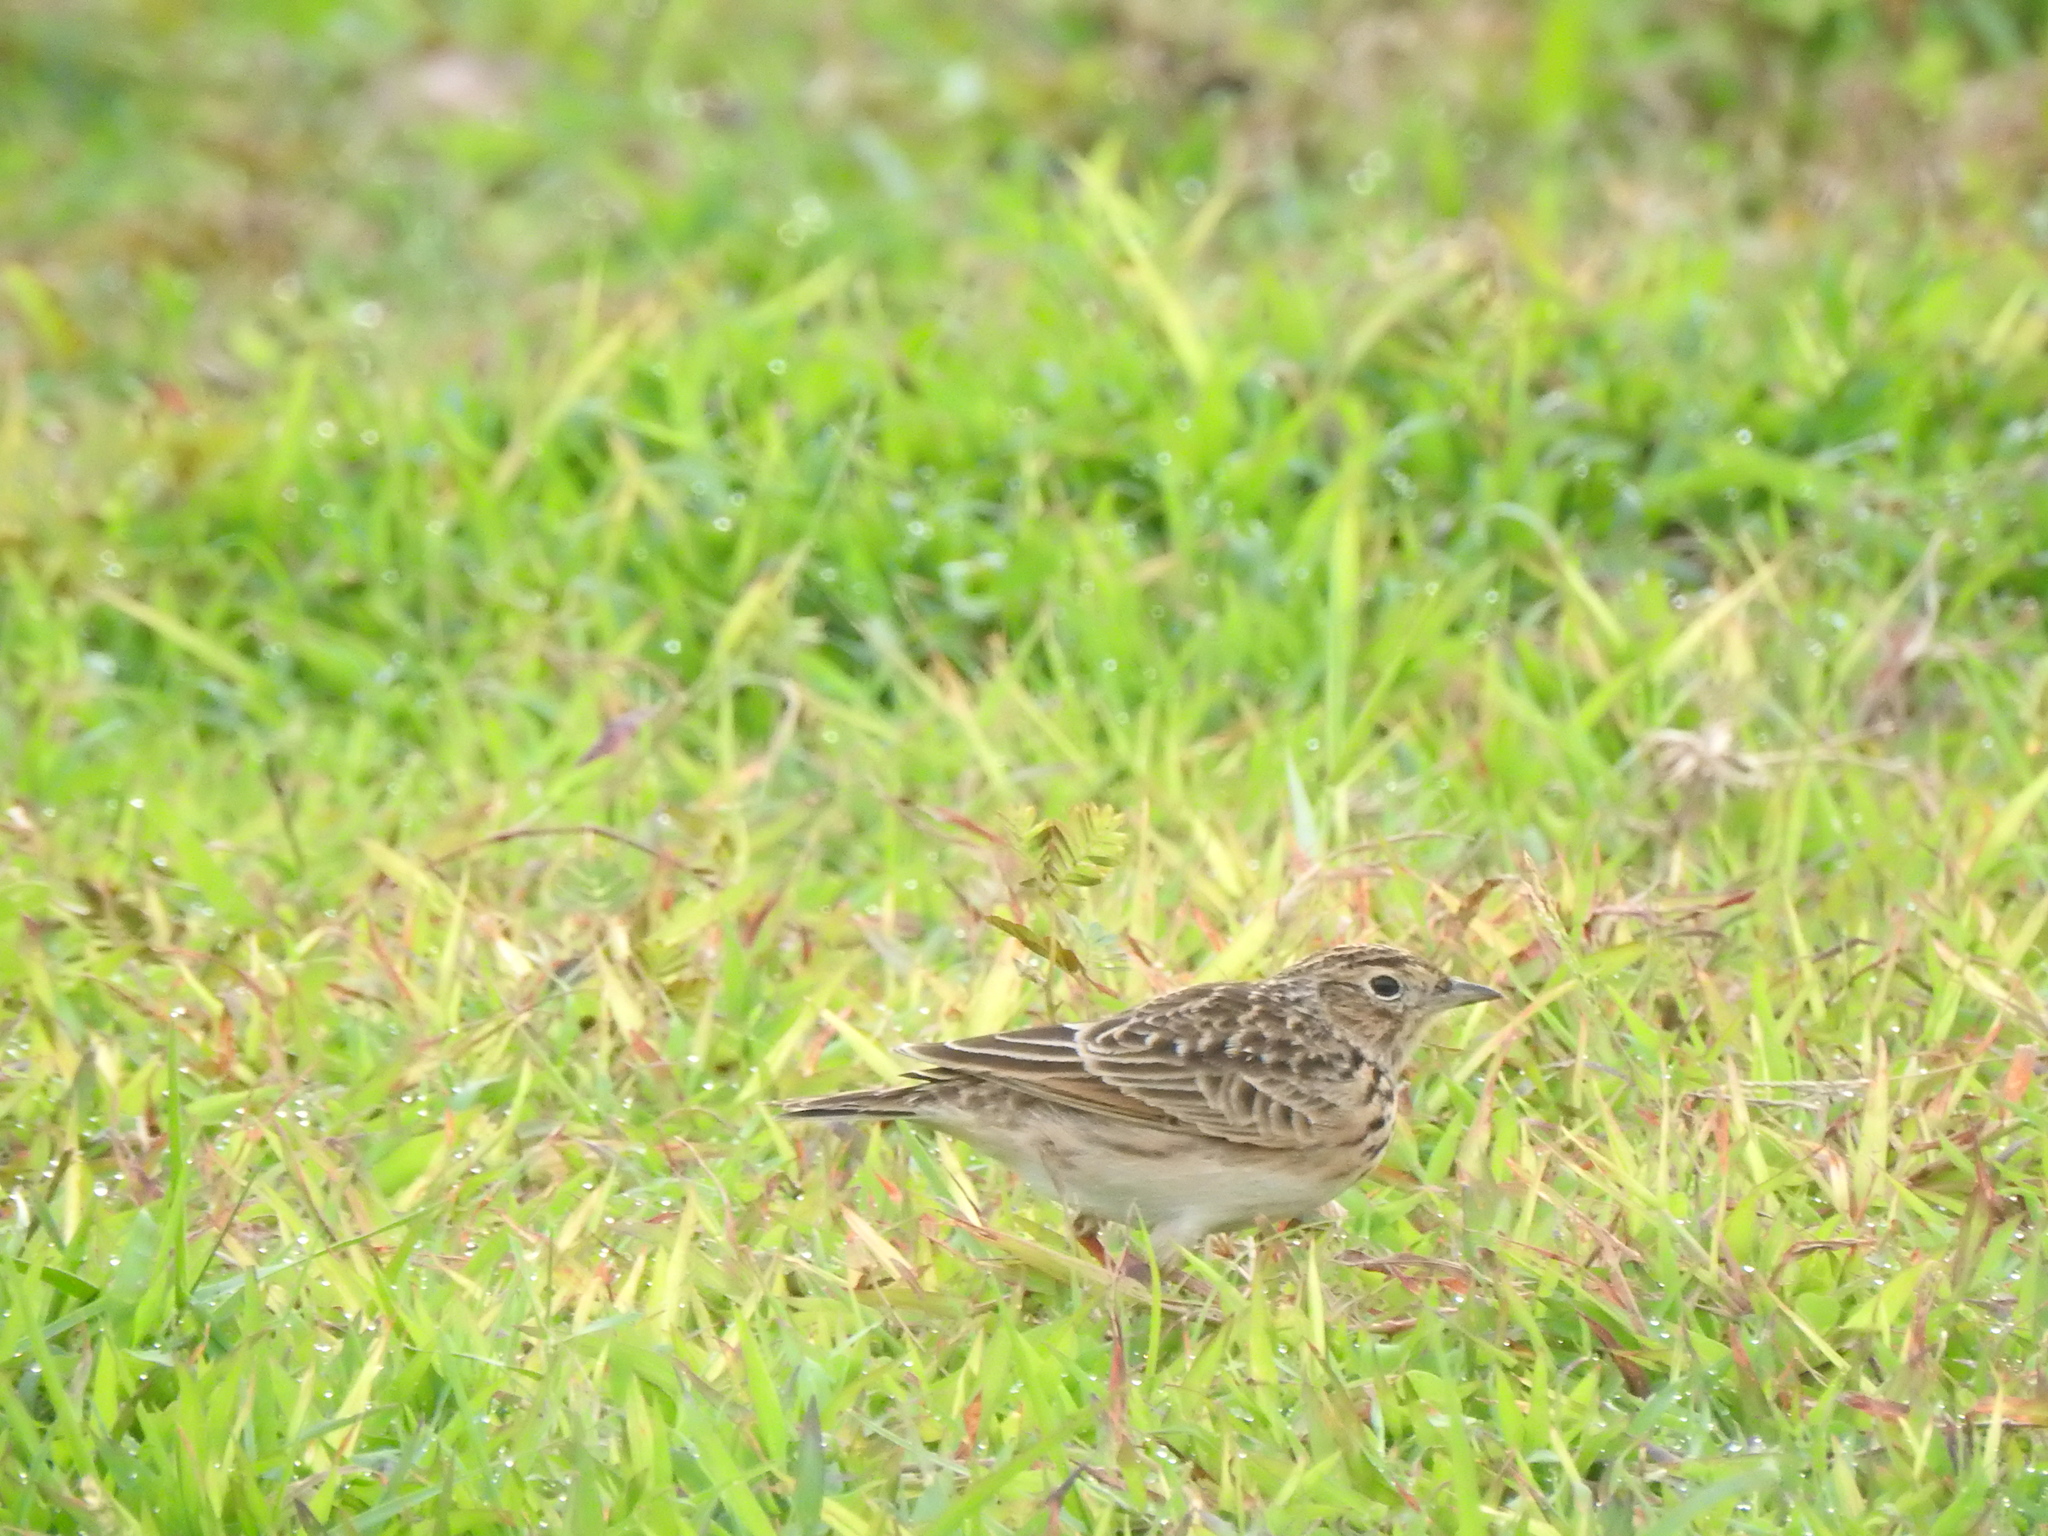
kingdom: Animalia
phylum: Chordata
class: Aves
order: Passeriformes
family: Alaudidae
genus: Alauda
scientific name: Alauda gulgula
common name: Oriental skylark
